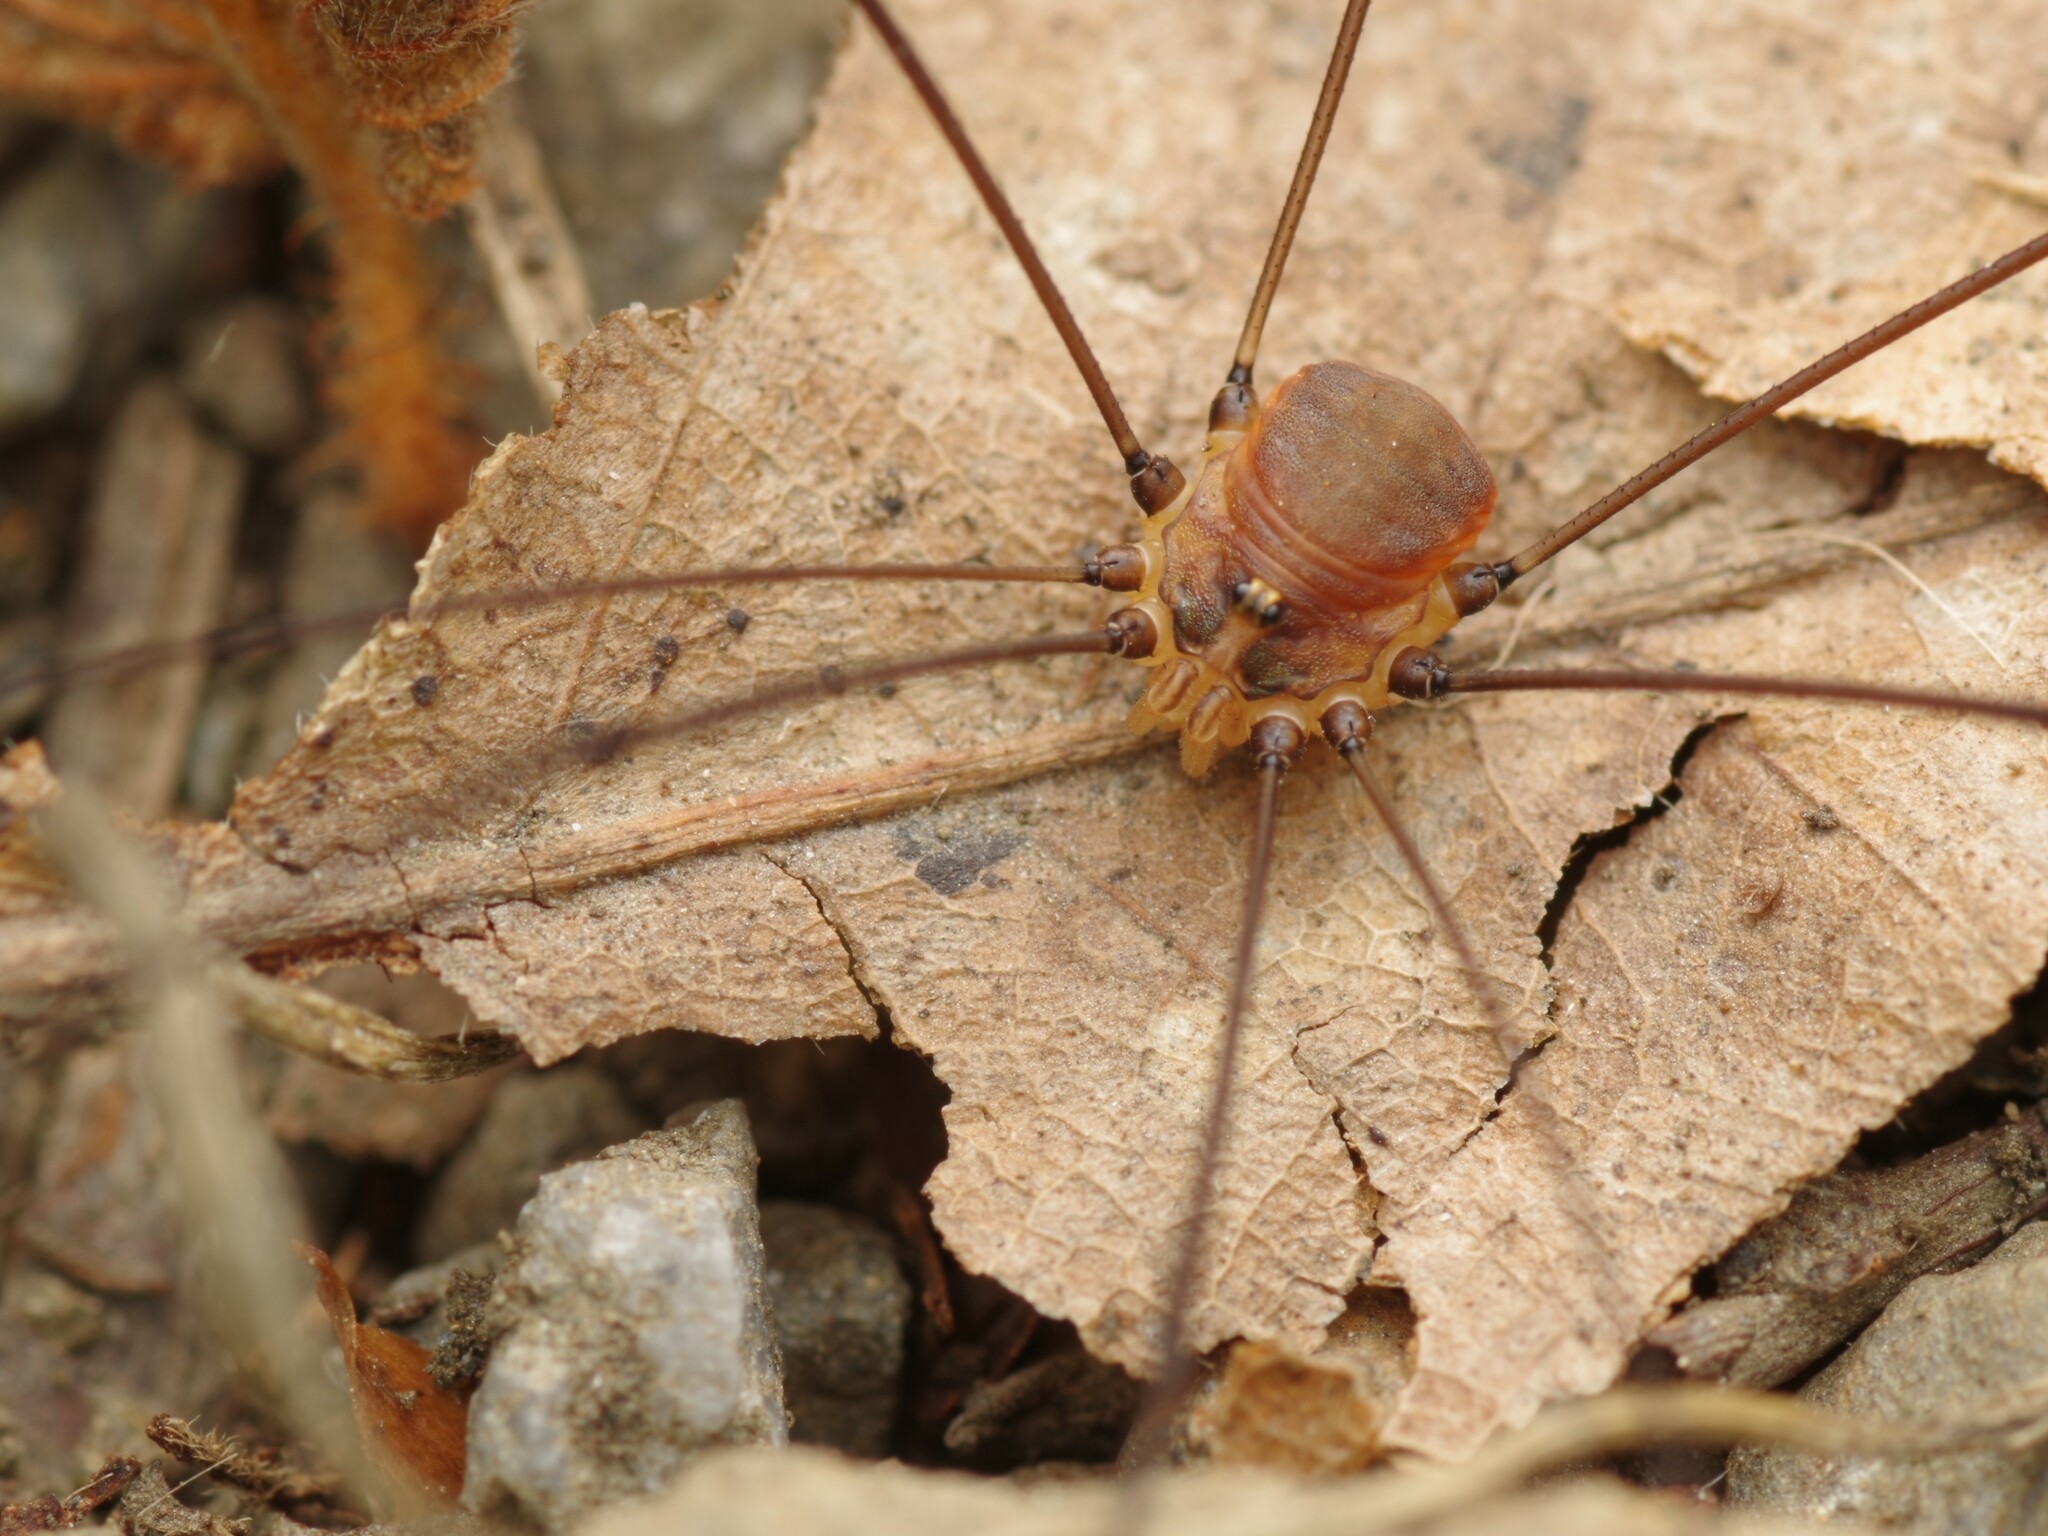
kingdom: Animalia
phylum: Arthropoda
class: Arachnida
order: Opiliones
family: Sclerosomatidae
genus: Leiobunum
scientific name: Leiobunum blackwalli
